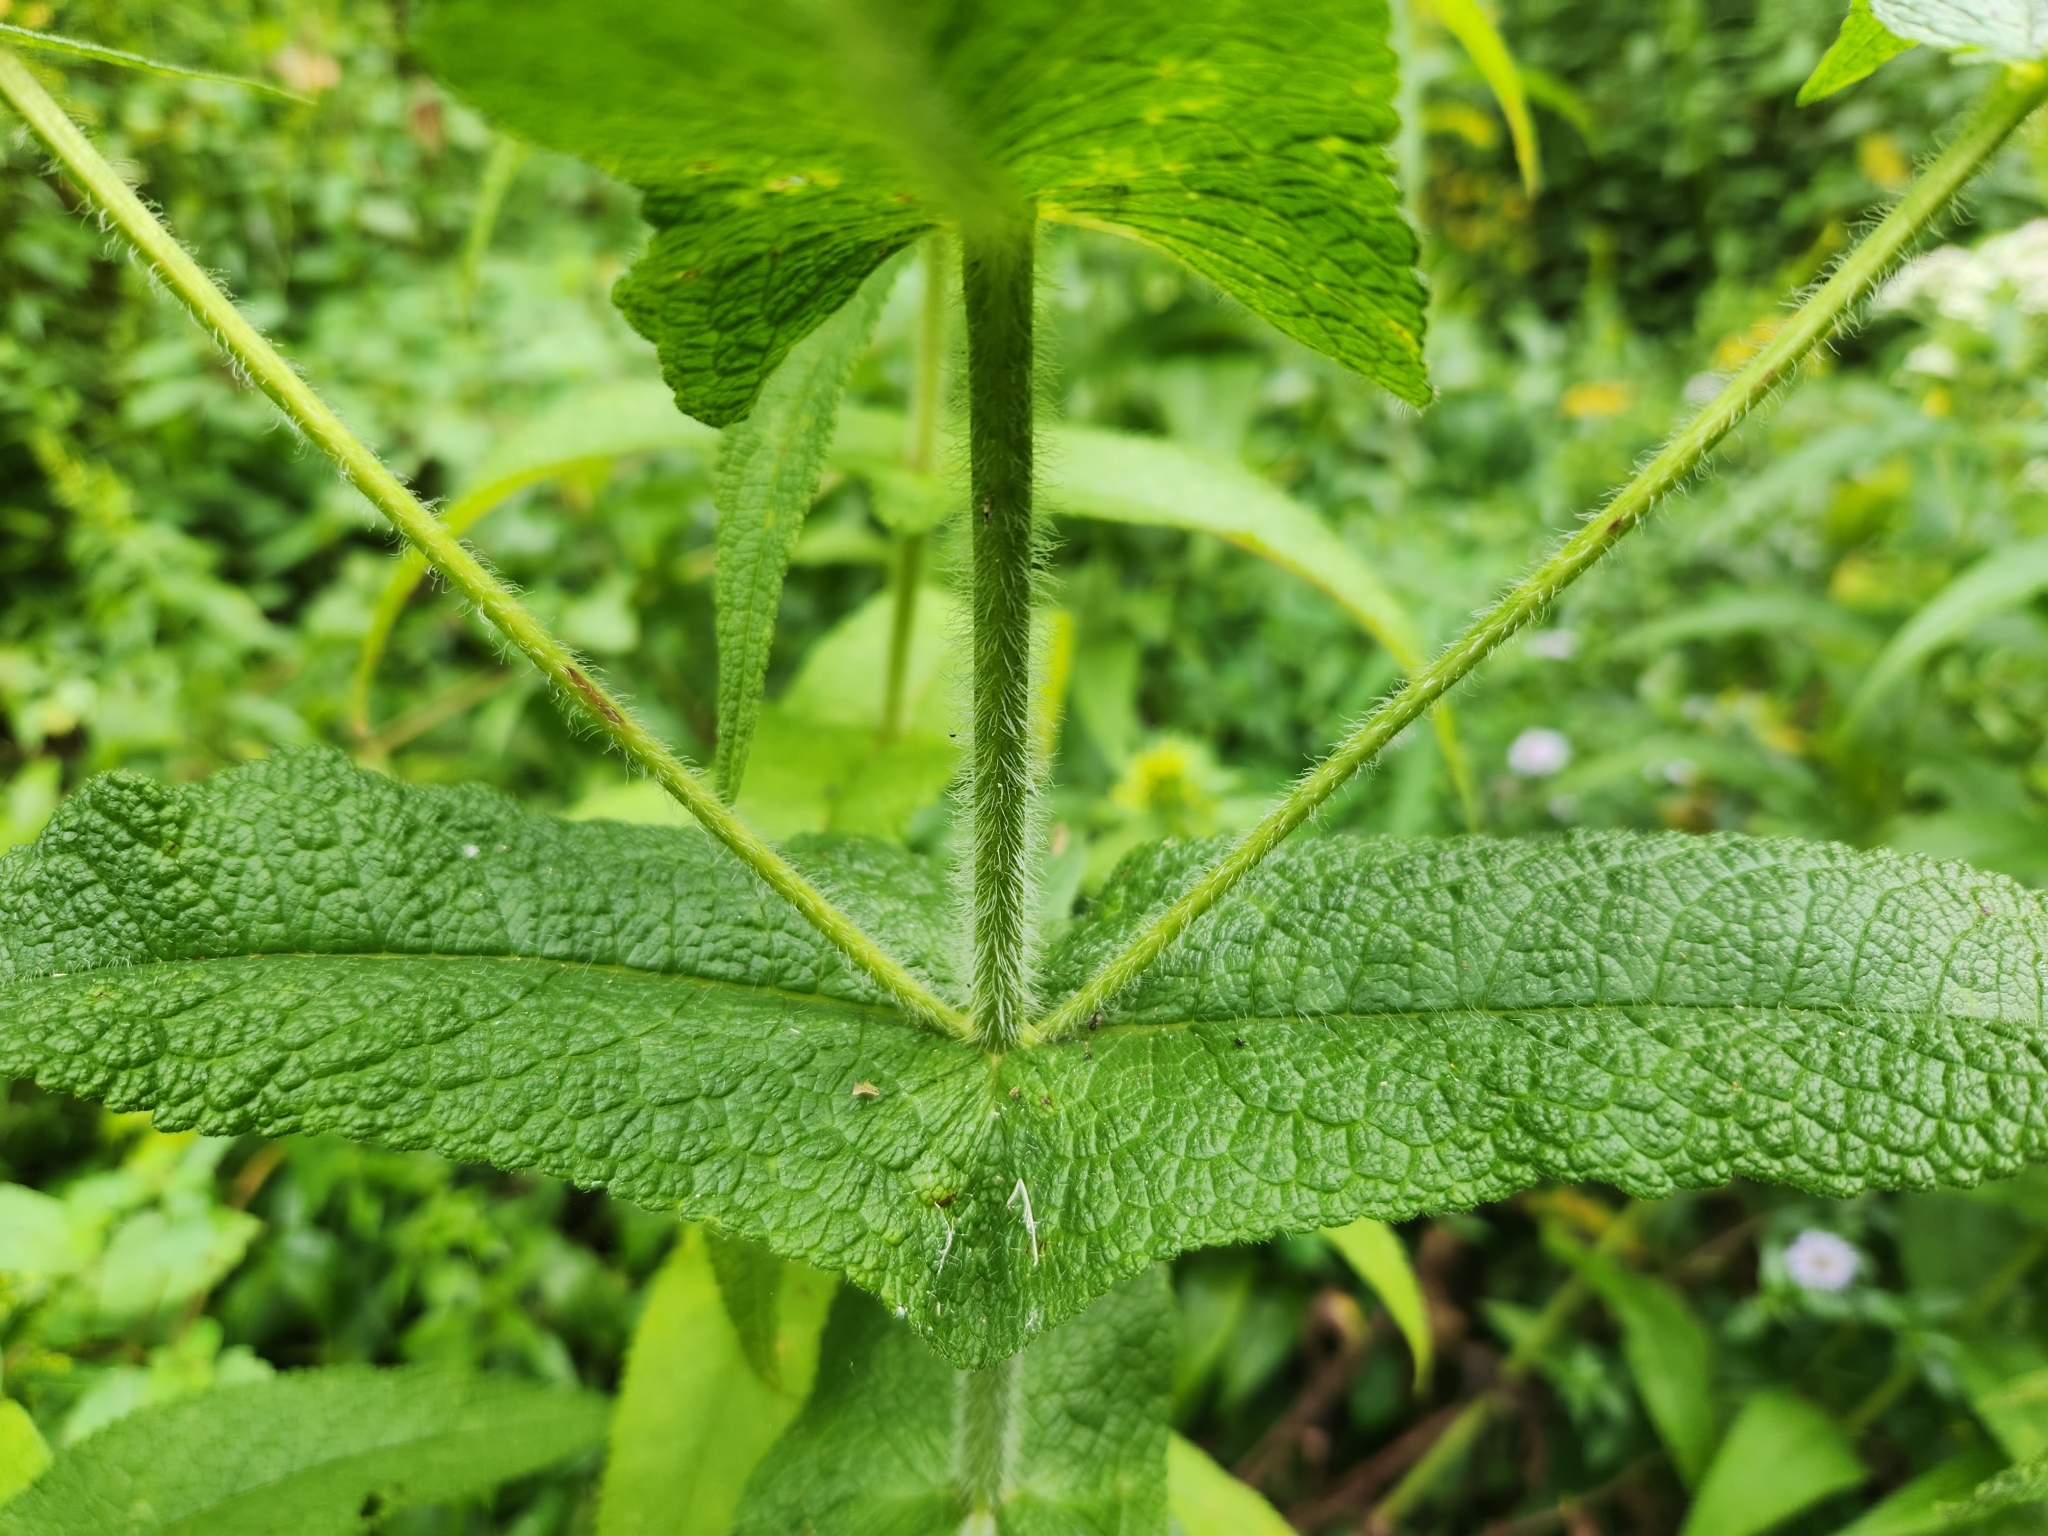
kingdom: Plantae
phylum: Tracheophyta
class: Magnoliopsida
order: Asterales
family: Asteraceae
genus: Eupatorium
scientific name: Eupatorium perfoliatum
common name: Boneset
